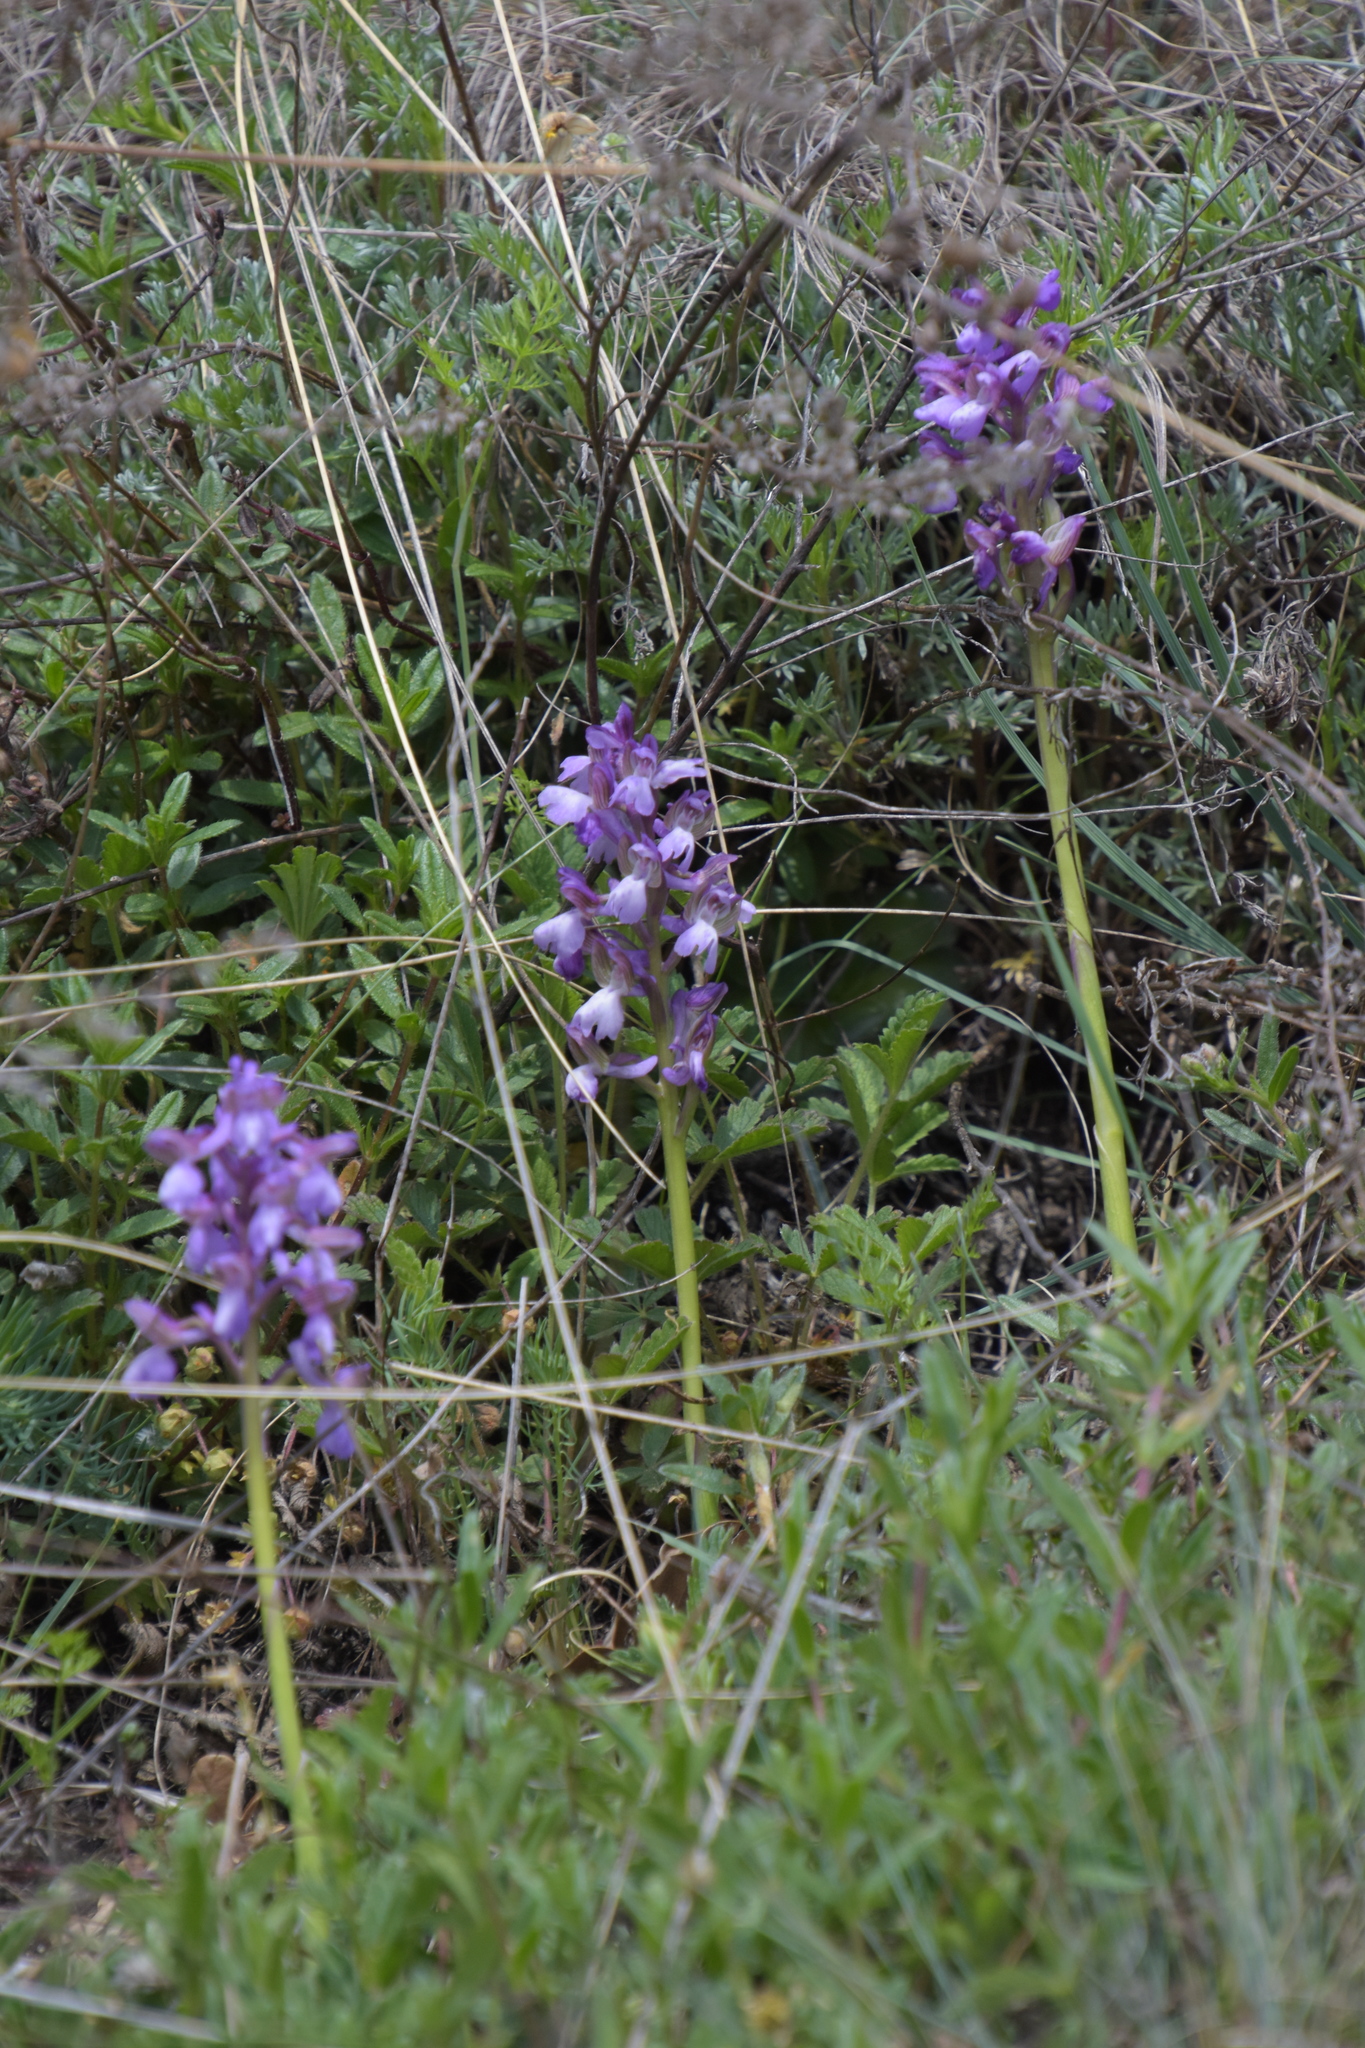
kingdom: Plantae
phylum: Tracheophyta
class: Liliopsida
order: Asparagales
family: Orchidaceae
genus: Anacamptis
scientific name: Anacamptis morio
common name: Green-winged orchid
